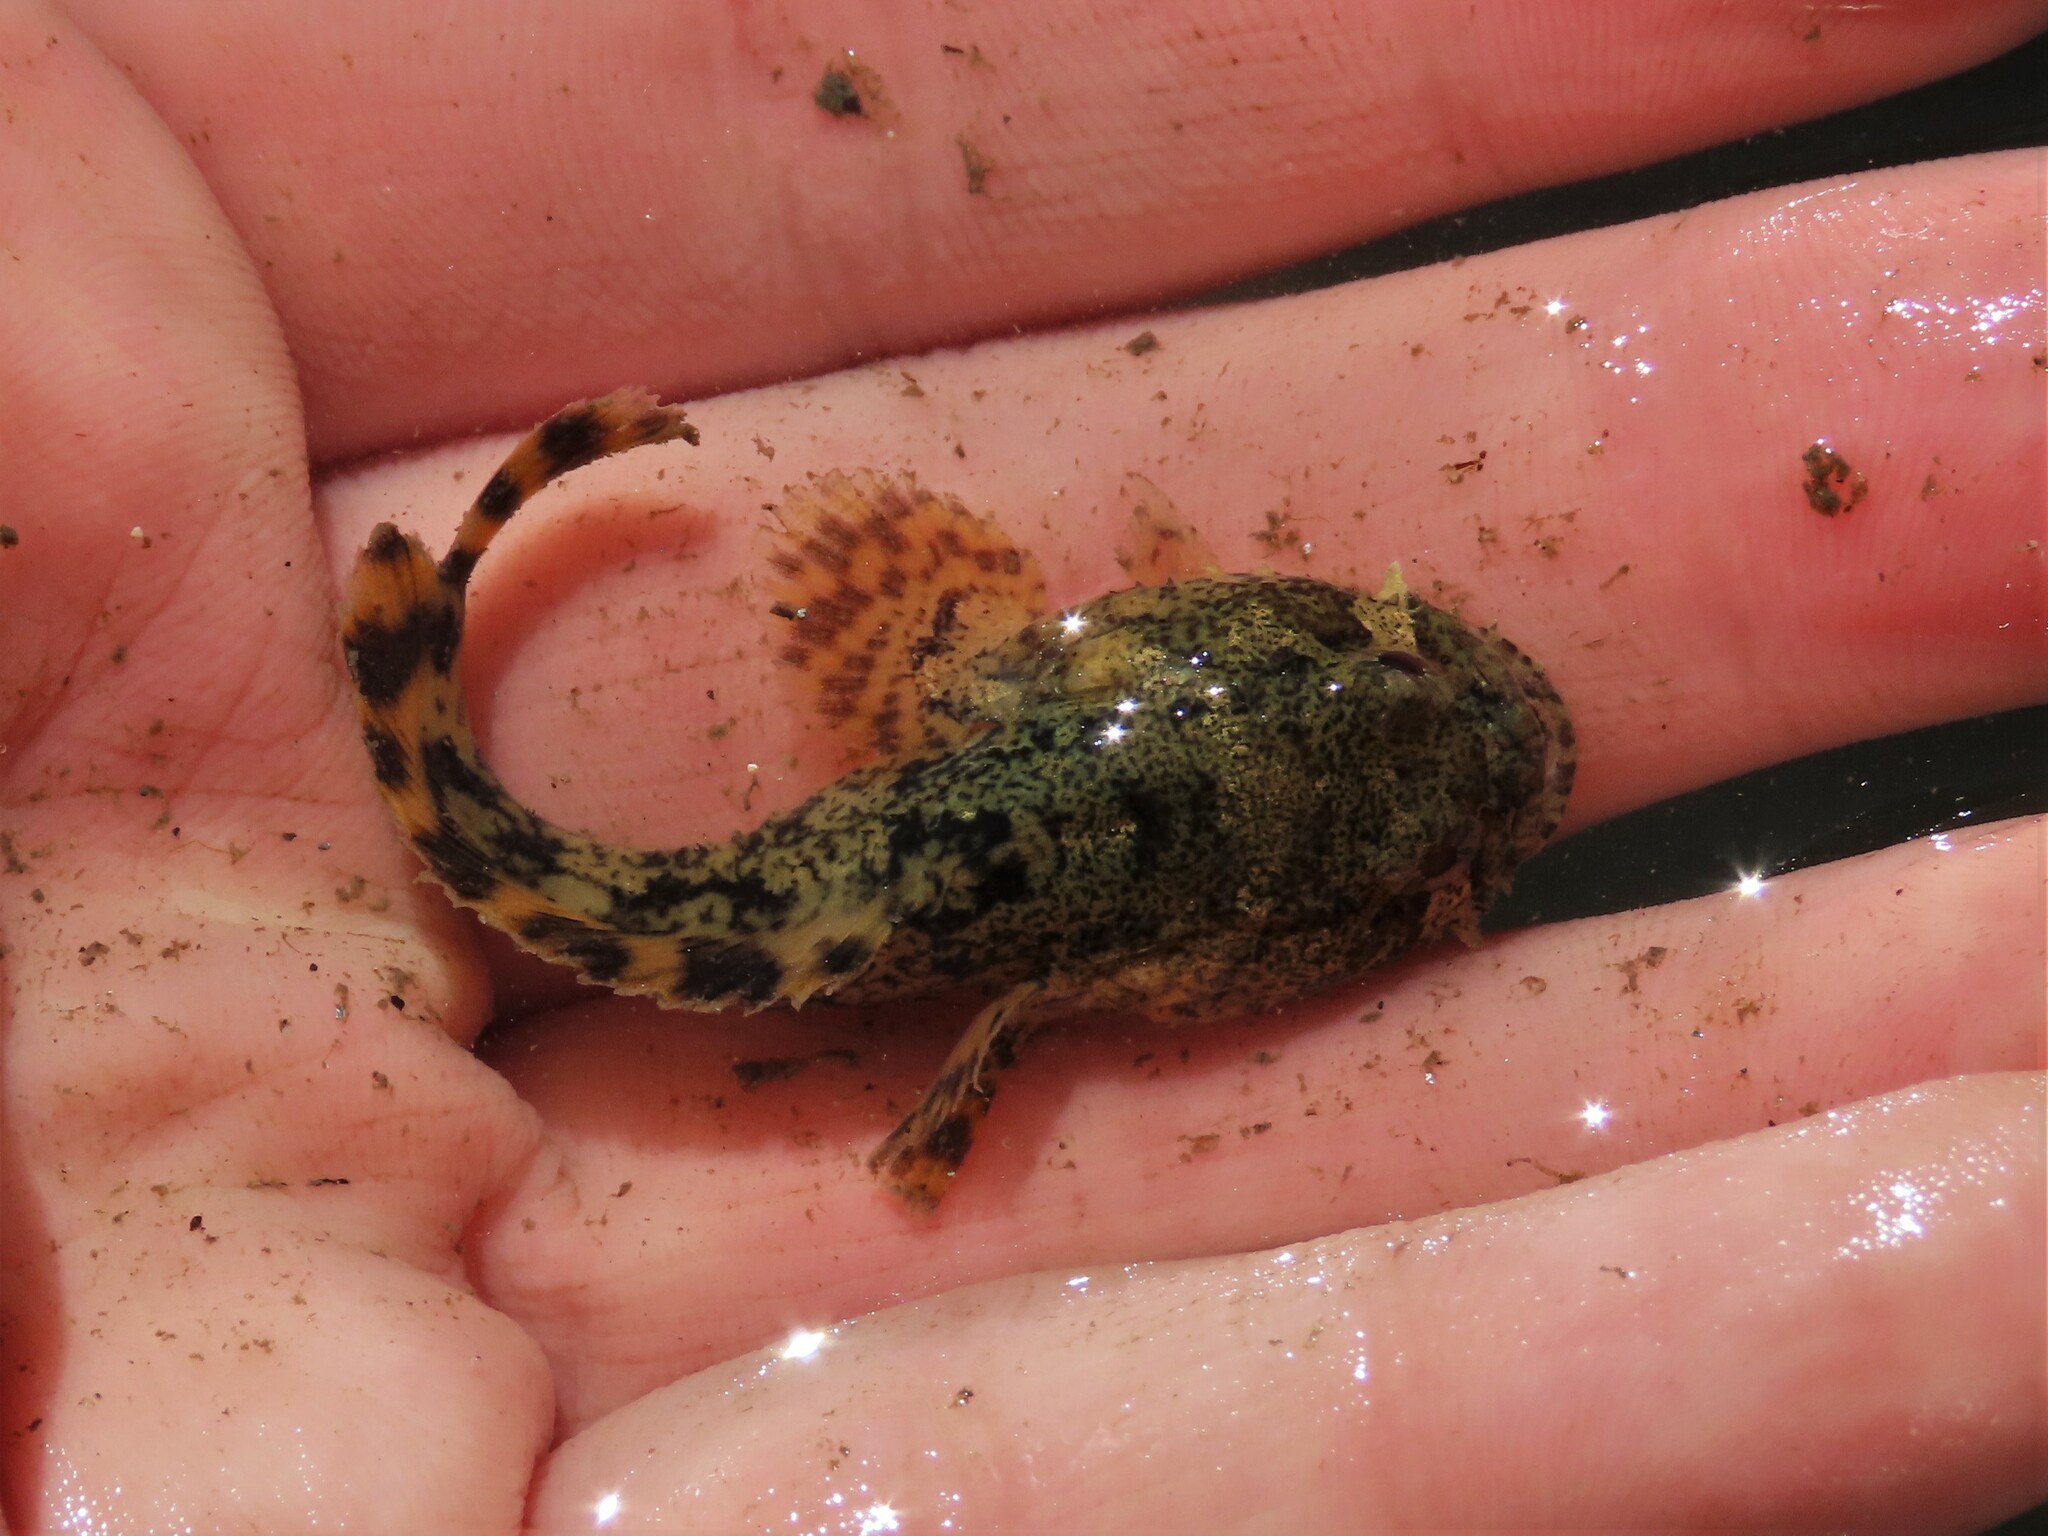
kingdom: Animalia
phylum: Chordata
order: Batrachoidiformes
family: Batrachoididae
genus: Opsanus
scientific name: Opsanus tau
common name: Oyster toadfish
